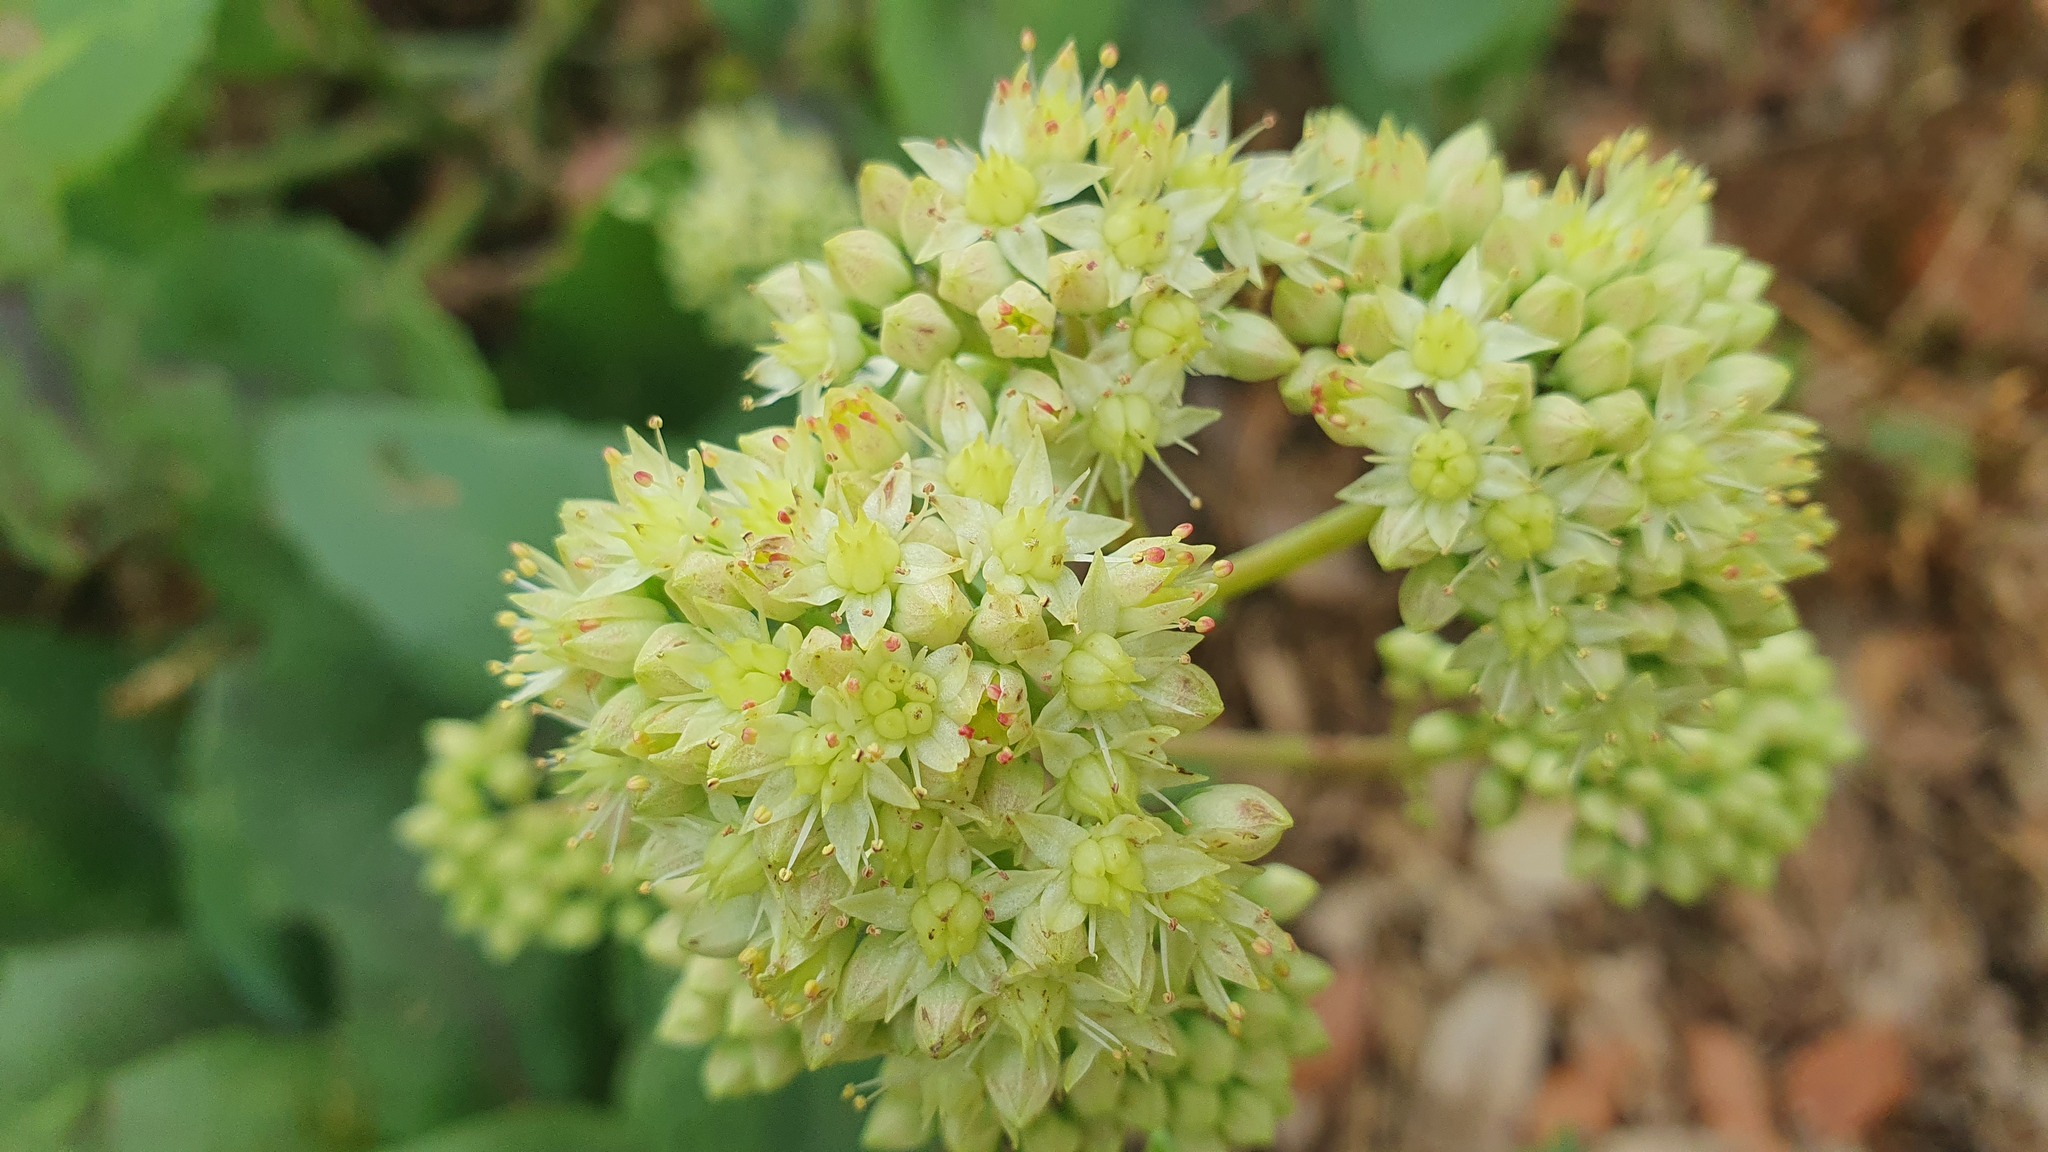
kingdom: Plantae
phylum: Tracheophyta
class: Magnoliopsida
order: Saxifragales
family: Crassulaceae
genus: Hylotelephium
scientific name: Hylotelephium maximum
